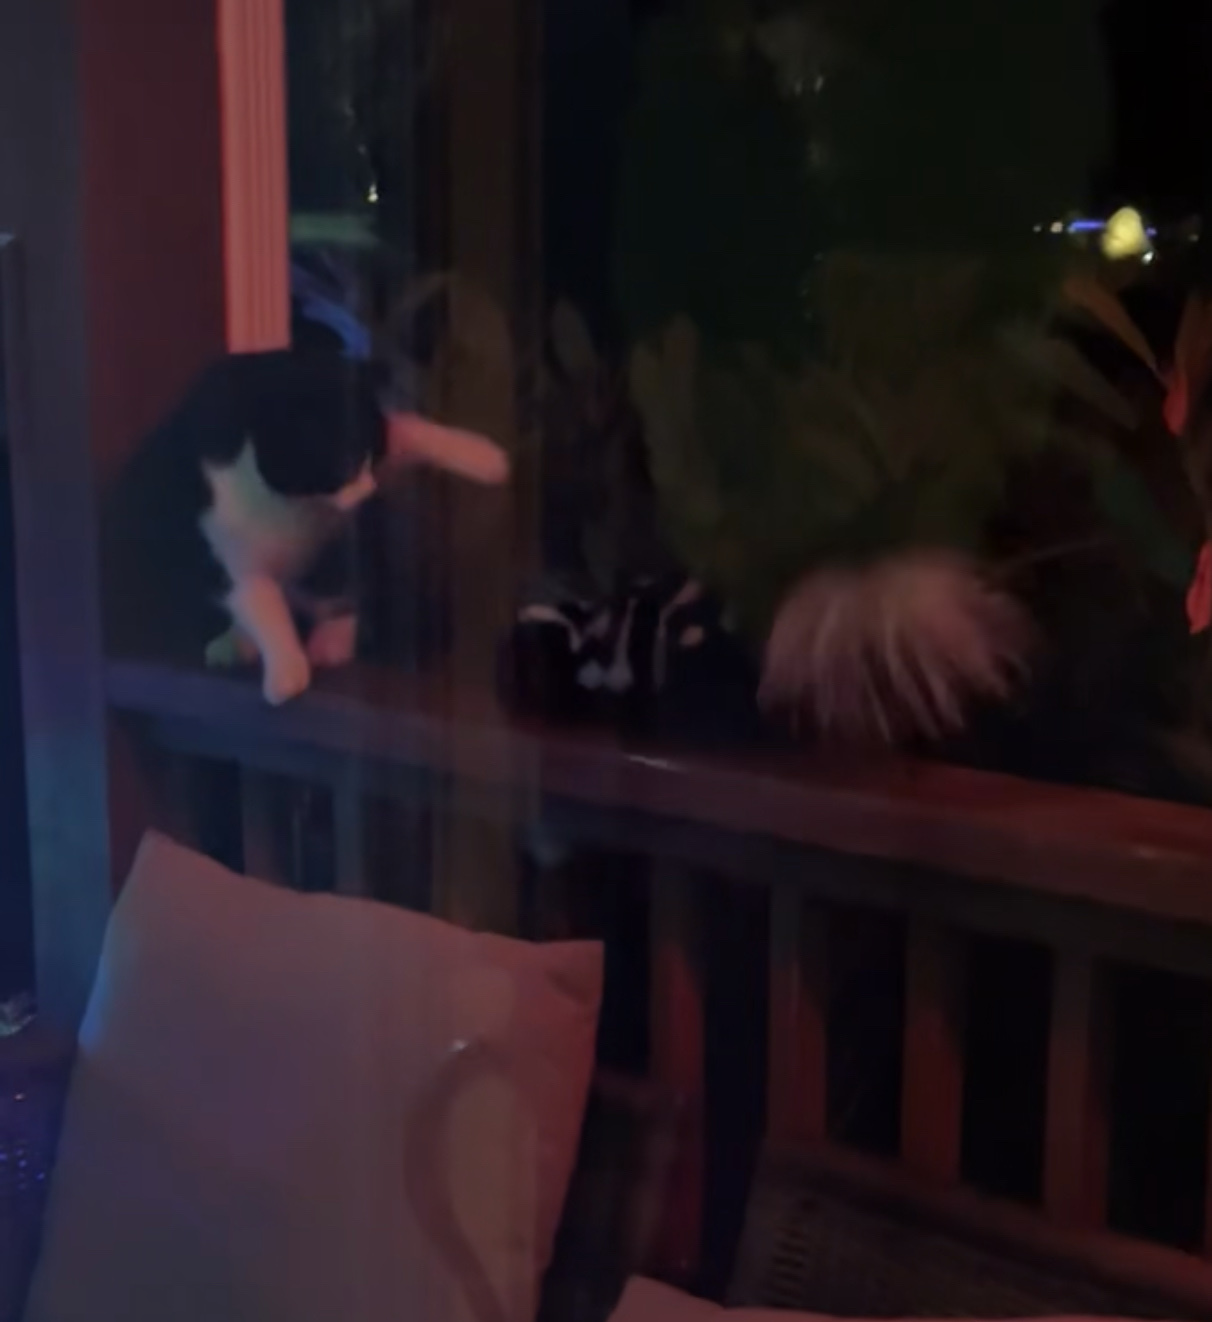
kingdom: Animalia
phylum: Chordata
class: Mammalia
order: Carnivora
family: Mephitidae
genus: Spilogale
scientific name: Spilogale putorius
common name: Eastern spotted skunk
